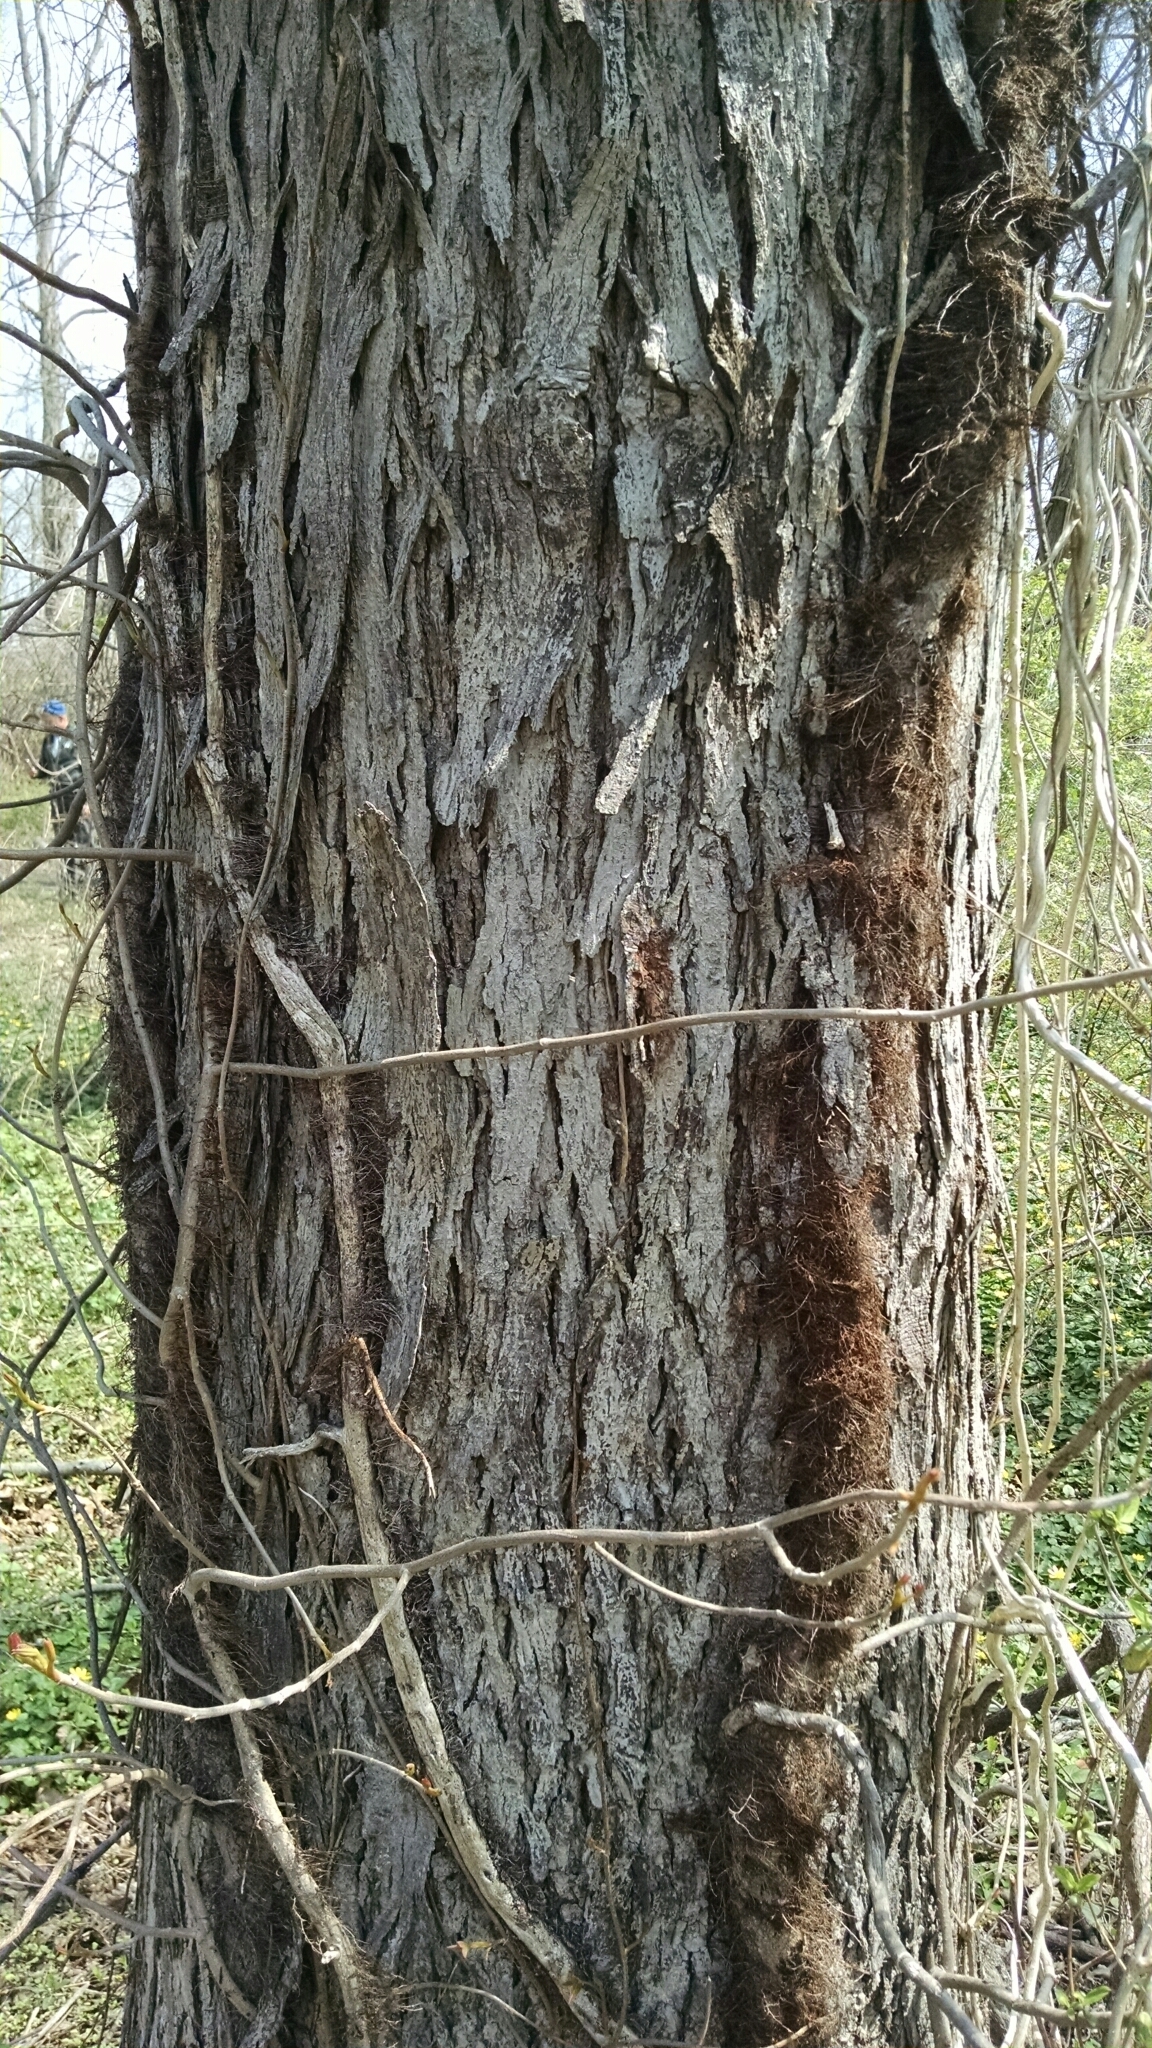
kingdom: Plantae
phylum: Tracheophyta
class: Magnoliopsida
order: Sapindales
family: Anacardiaceae
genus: Toxicodendron
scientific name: Toxicodendron radicans
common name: Poison ivy
